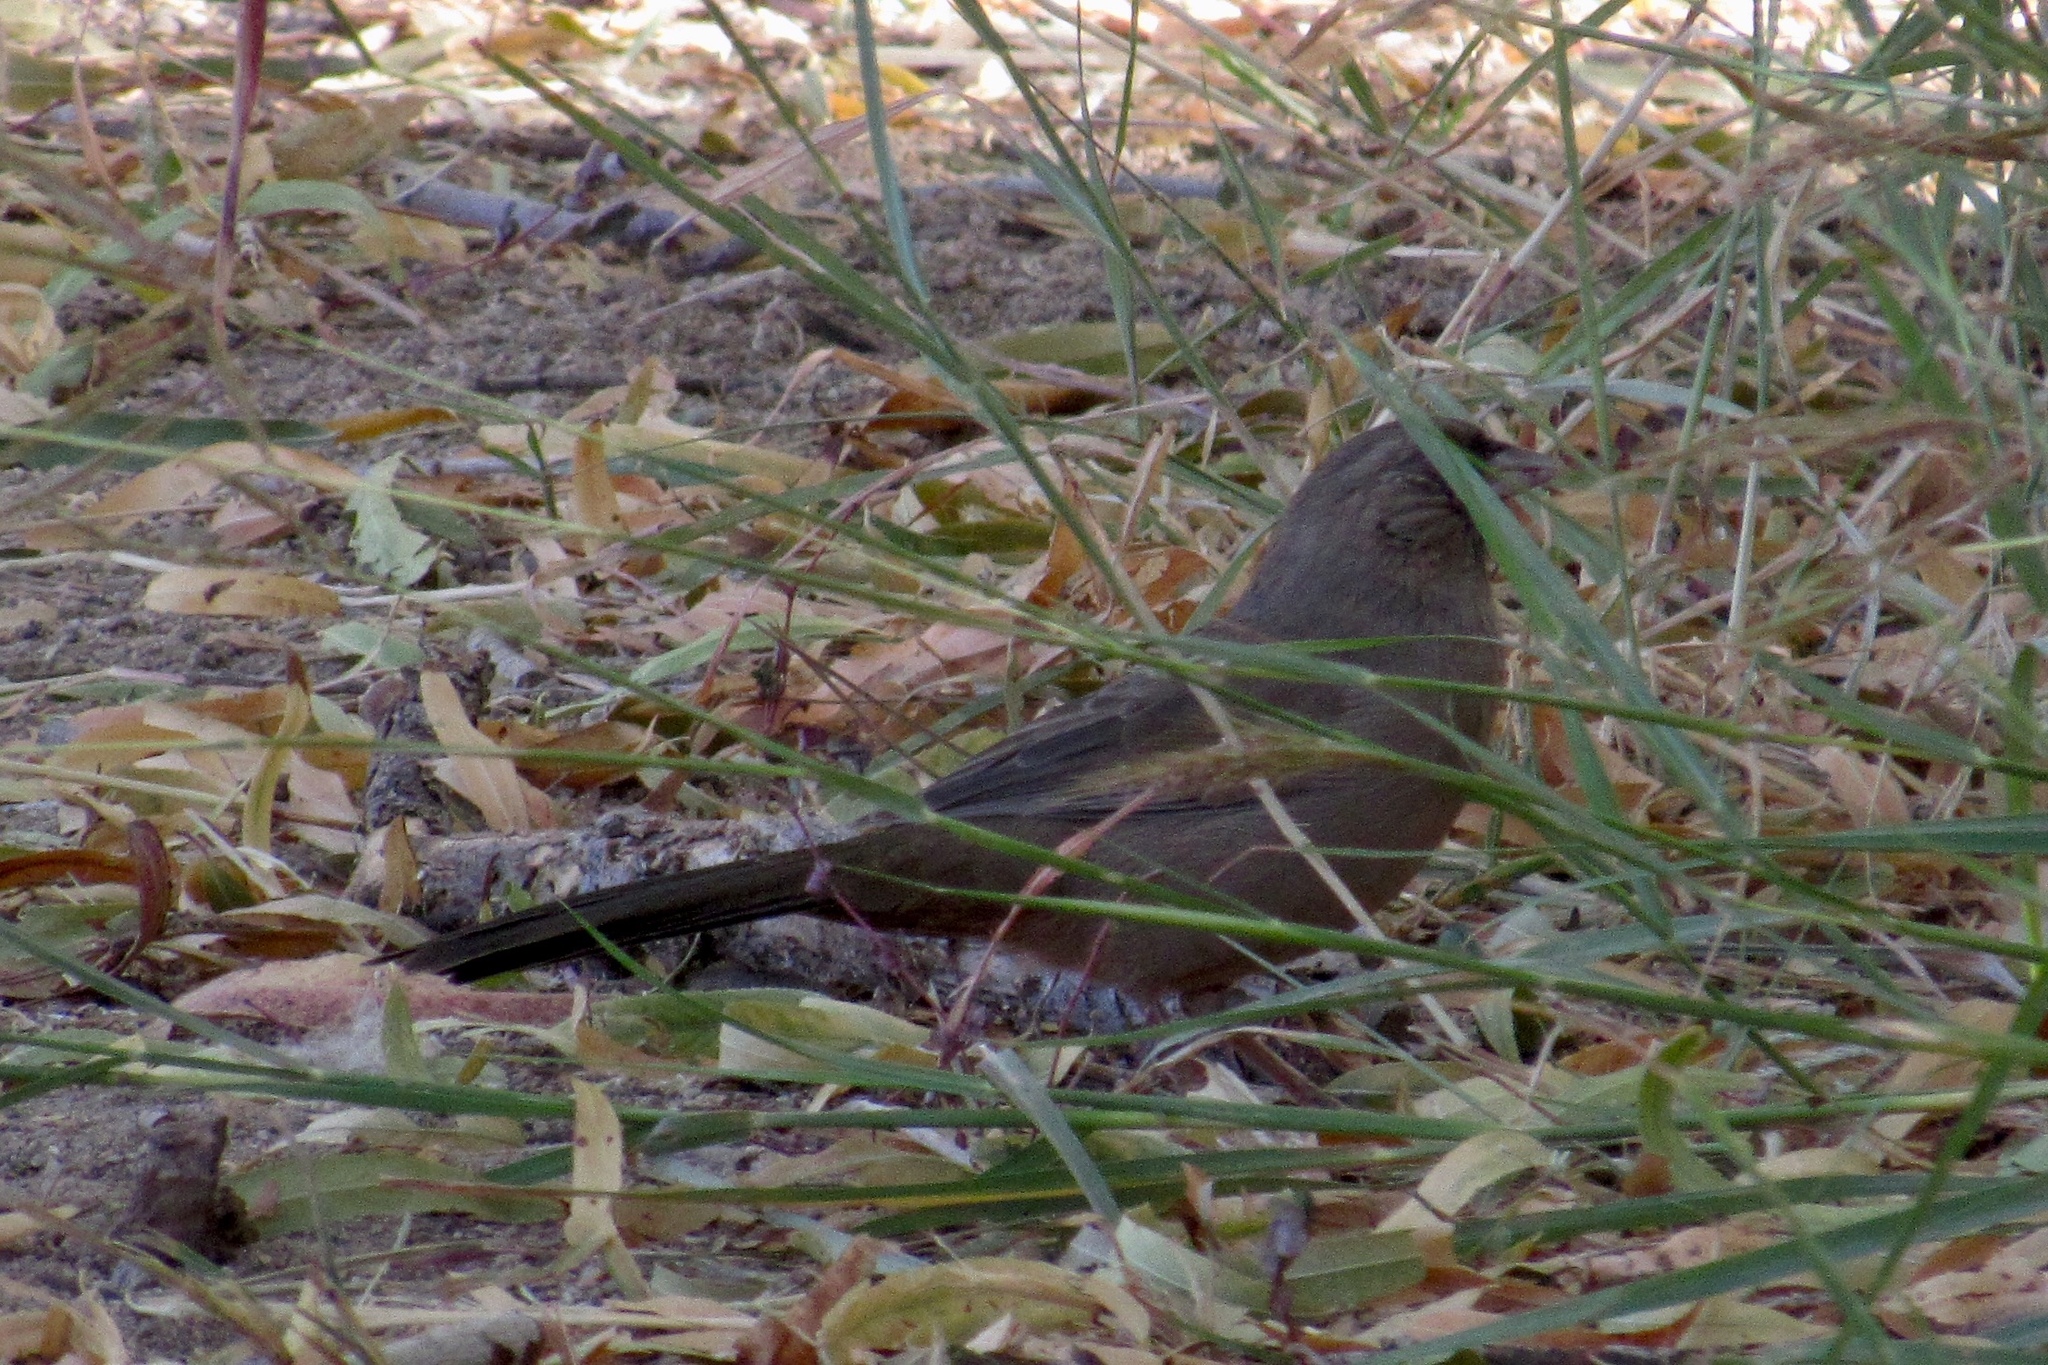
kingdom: Animalia
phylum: Chordata
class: Aves
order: Passeriformes
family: Passerellidae
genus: Melozone
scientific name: Melozone aberti
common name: Abert's towhee
